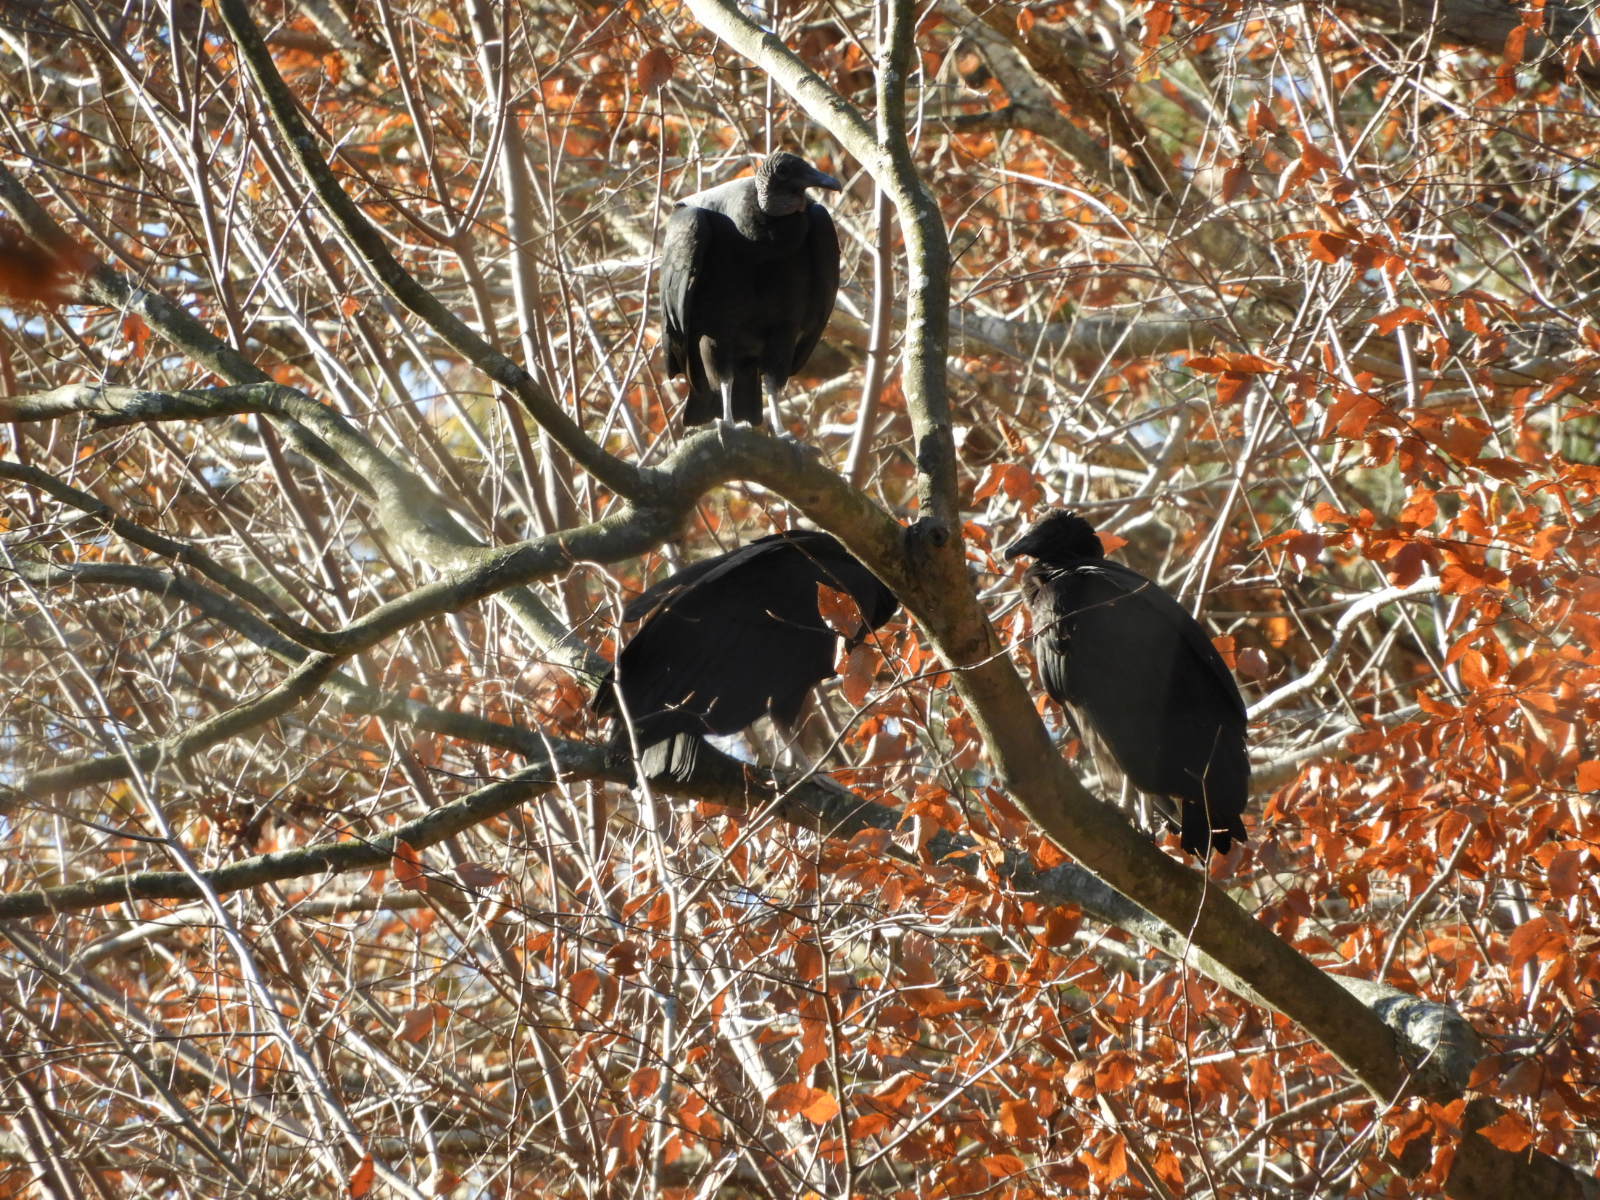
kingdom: Animalia
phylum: Chordata
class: Aves
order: Accipitriformes
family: Cathartidae
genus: Coragyps
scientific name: Coragyps atratus
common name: Black vulture
